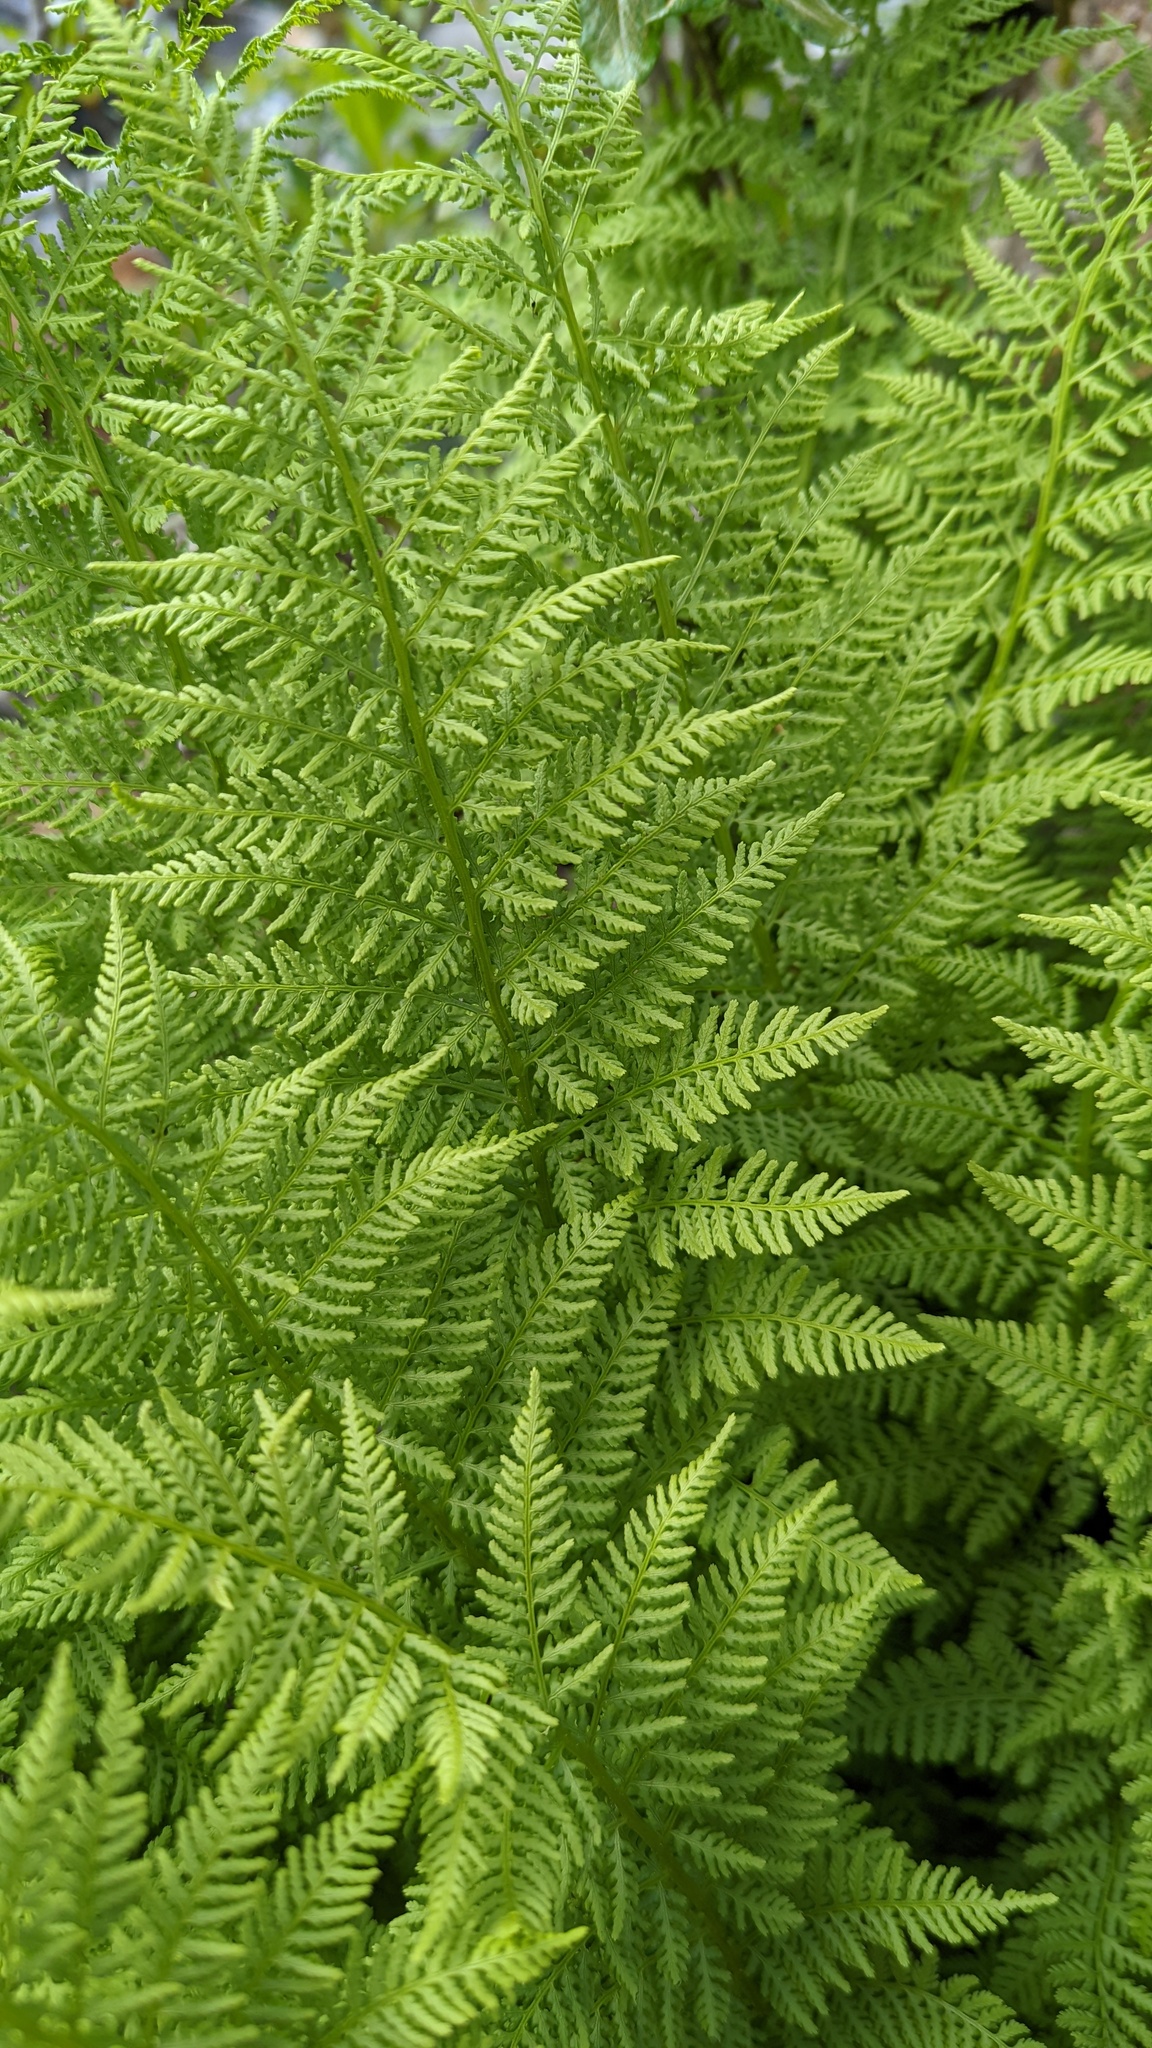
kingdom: Plantae
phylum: Tracheophyta
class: Polypodiopsida
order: Polypodiales
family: Athyriaceae
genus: Athyrium
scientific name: Athyrium americanum
